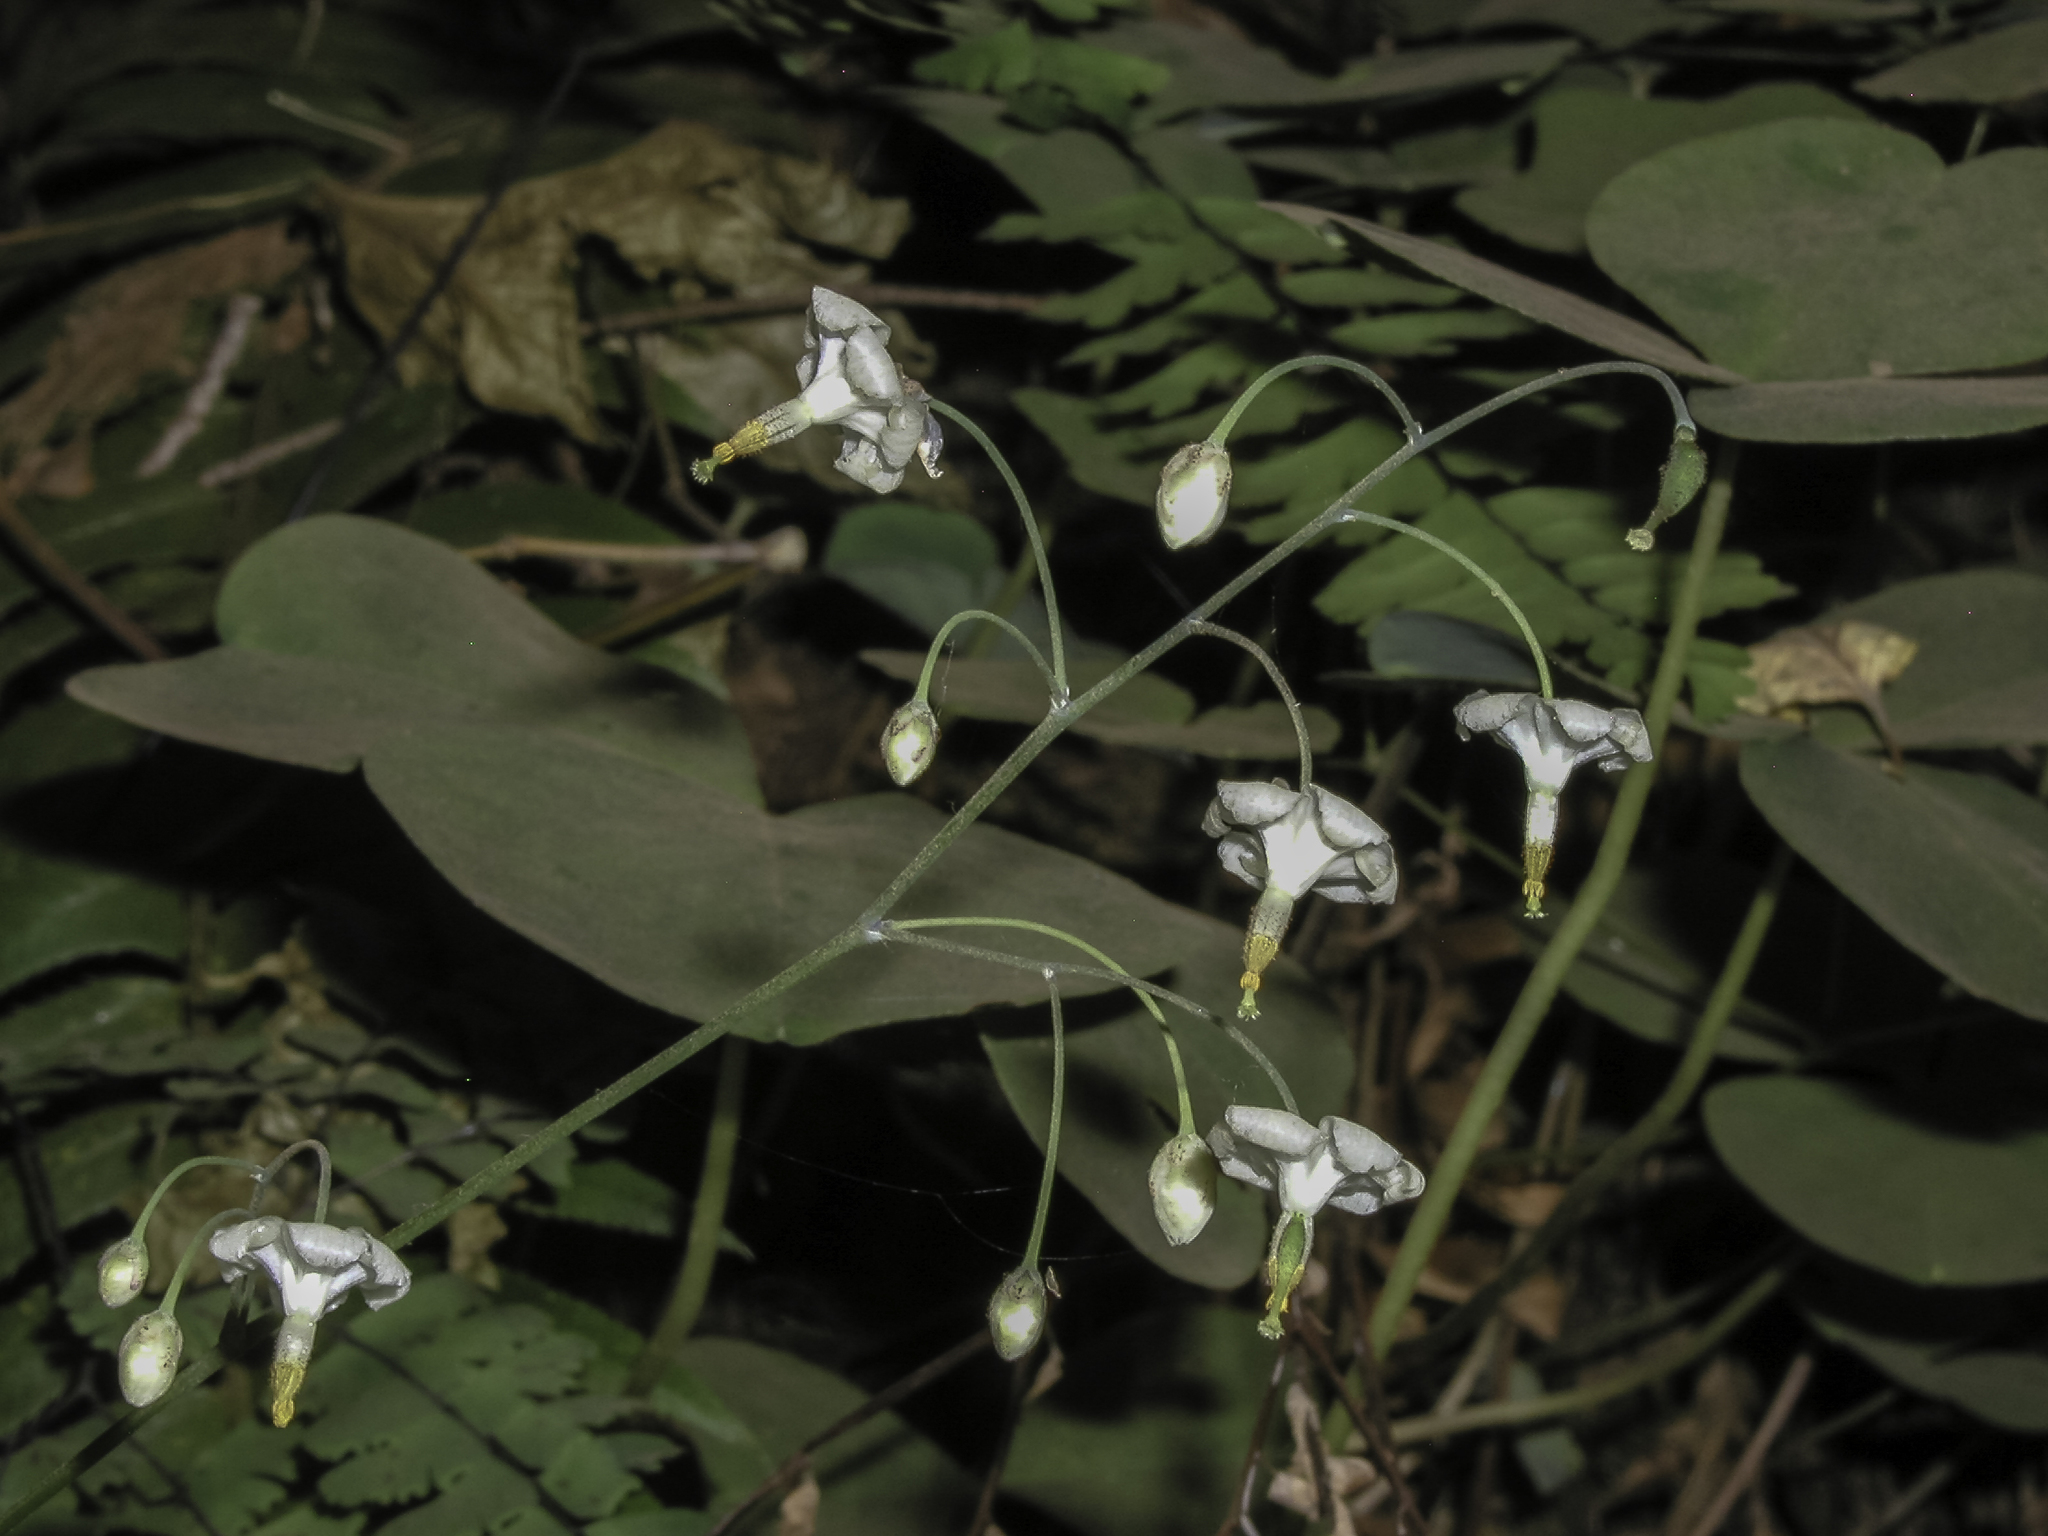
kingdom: Plantae
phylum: Tracheophyta
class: Magnoliopsida
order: Ranunculales
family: Berberidaceae
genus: Vancouveria
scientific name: Vancouveria hexandra
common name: Northern inside-out-flower
